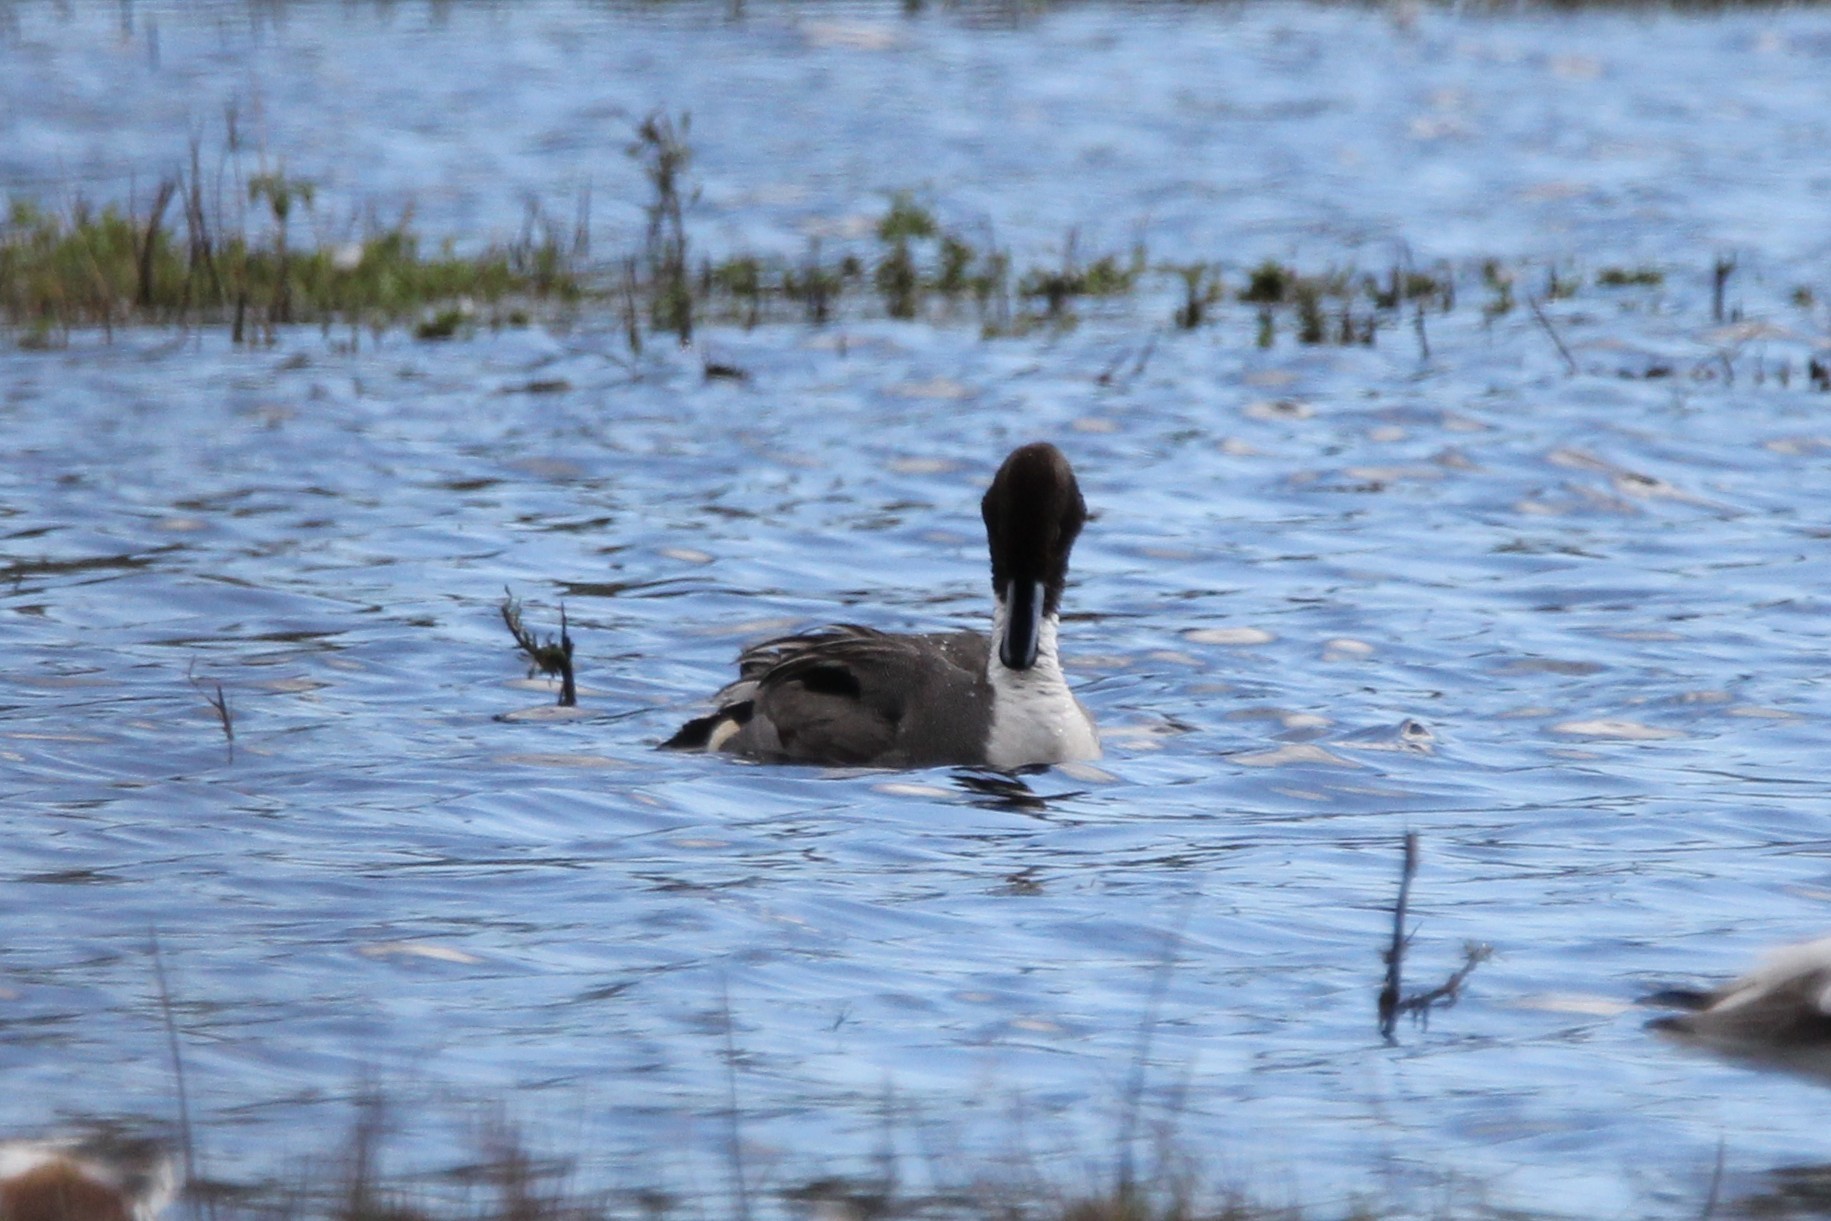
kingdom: Animalia
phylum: Chordata
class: Aves
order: Anseriformes
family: Anatidae
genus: Anas
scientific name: Anas acuta
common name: Northern pintail
